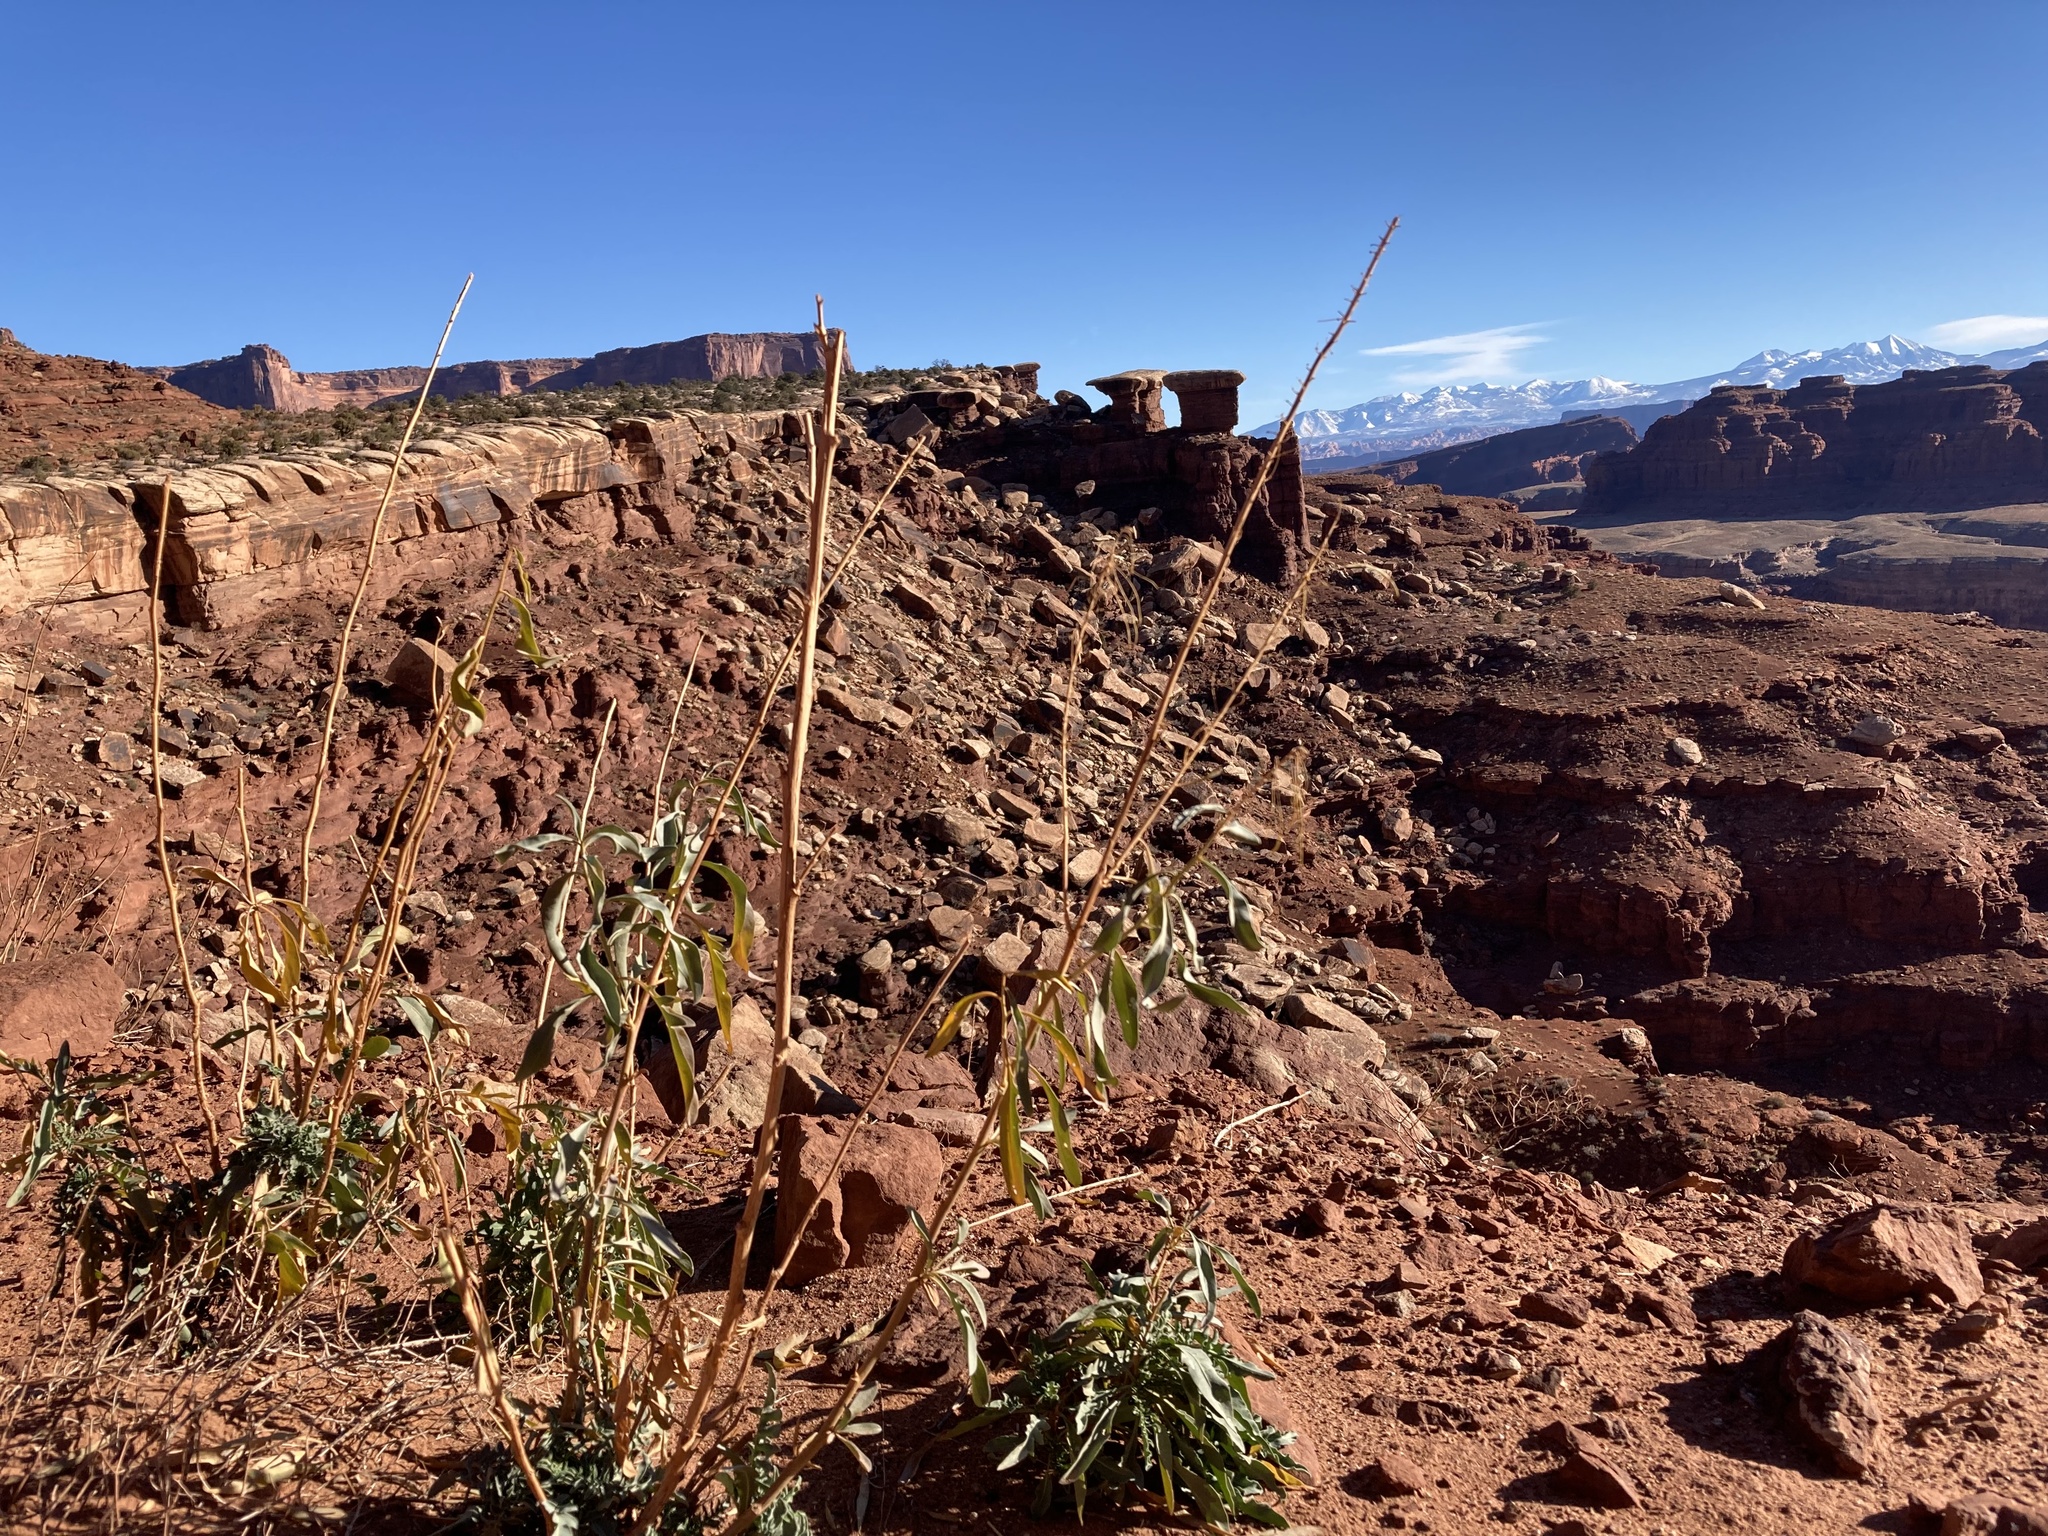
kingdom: Plantae
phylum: Tracheophyta
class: Magnoliopsida
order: Brassicales
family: Brassicaceae
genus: Stanleya
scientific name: Stanleya pinnata
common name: Prince's-plume
